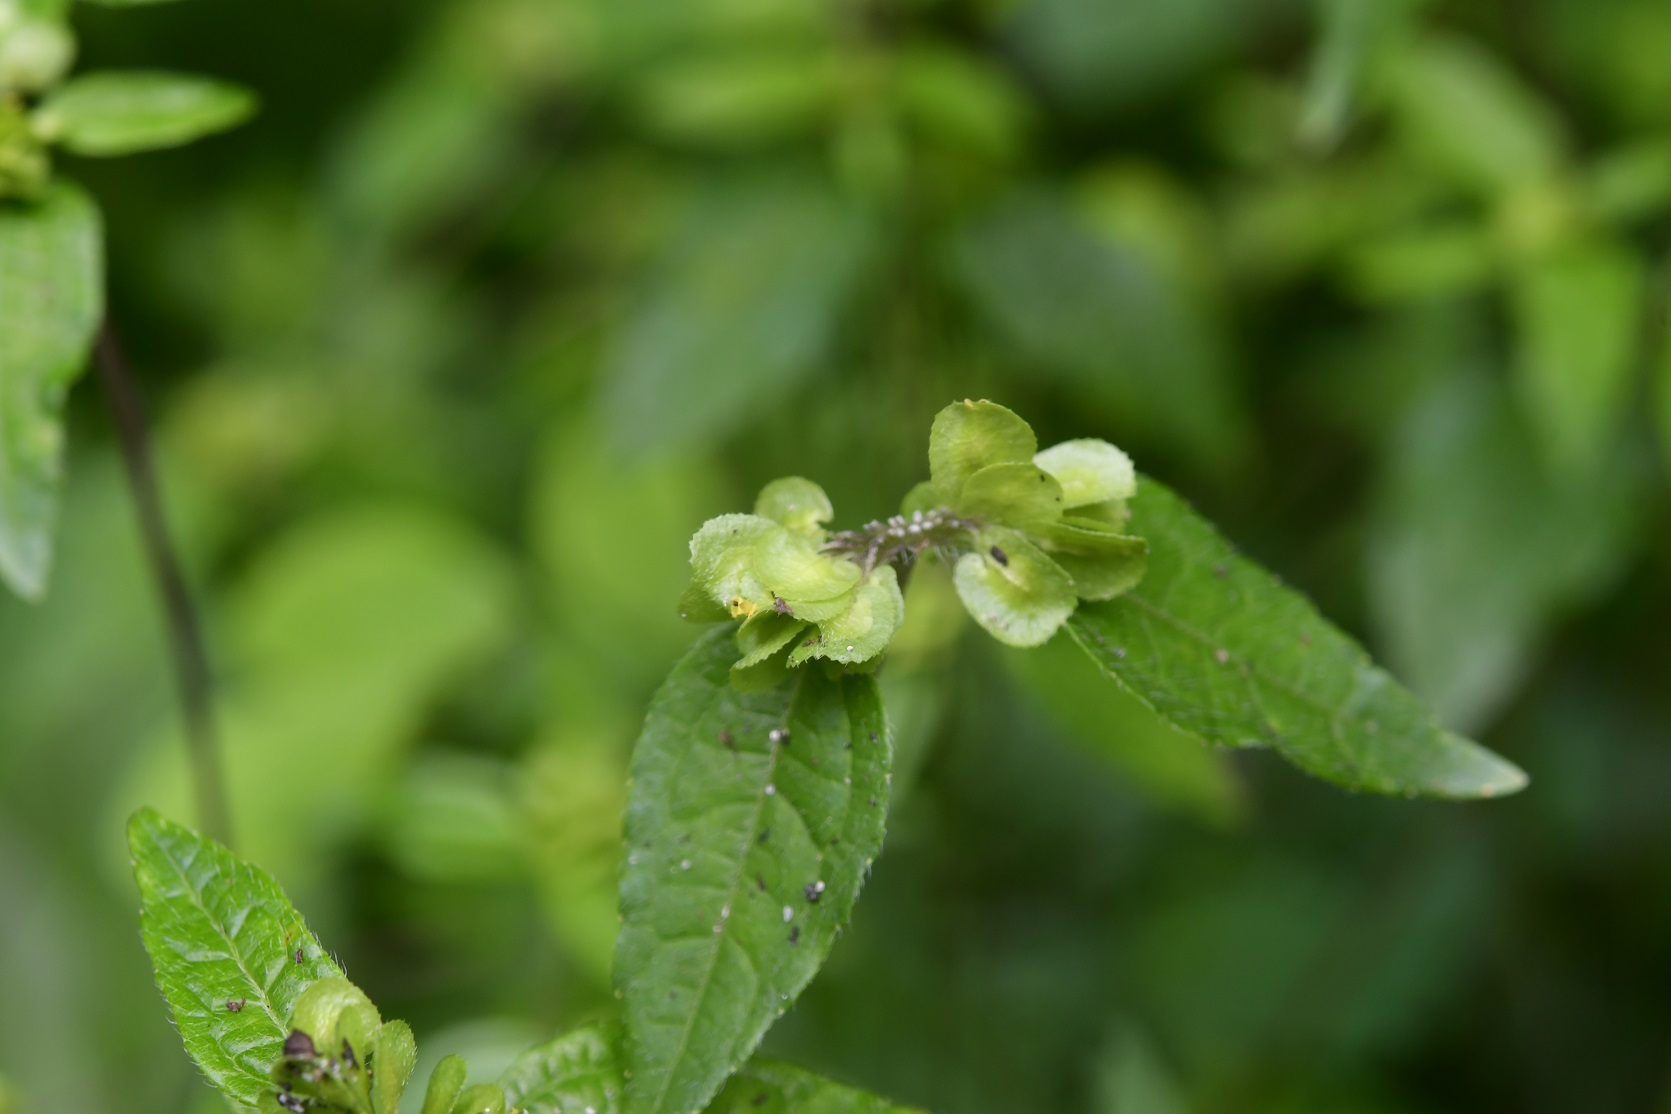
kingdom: Plantae
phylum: Tracheophyta
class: Magnoliopsida
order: Asterales
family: Asteraceae
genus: Delilia
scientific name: Delilia biflora
